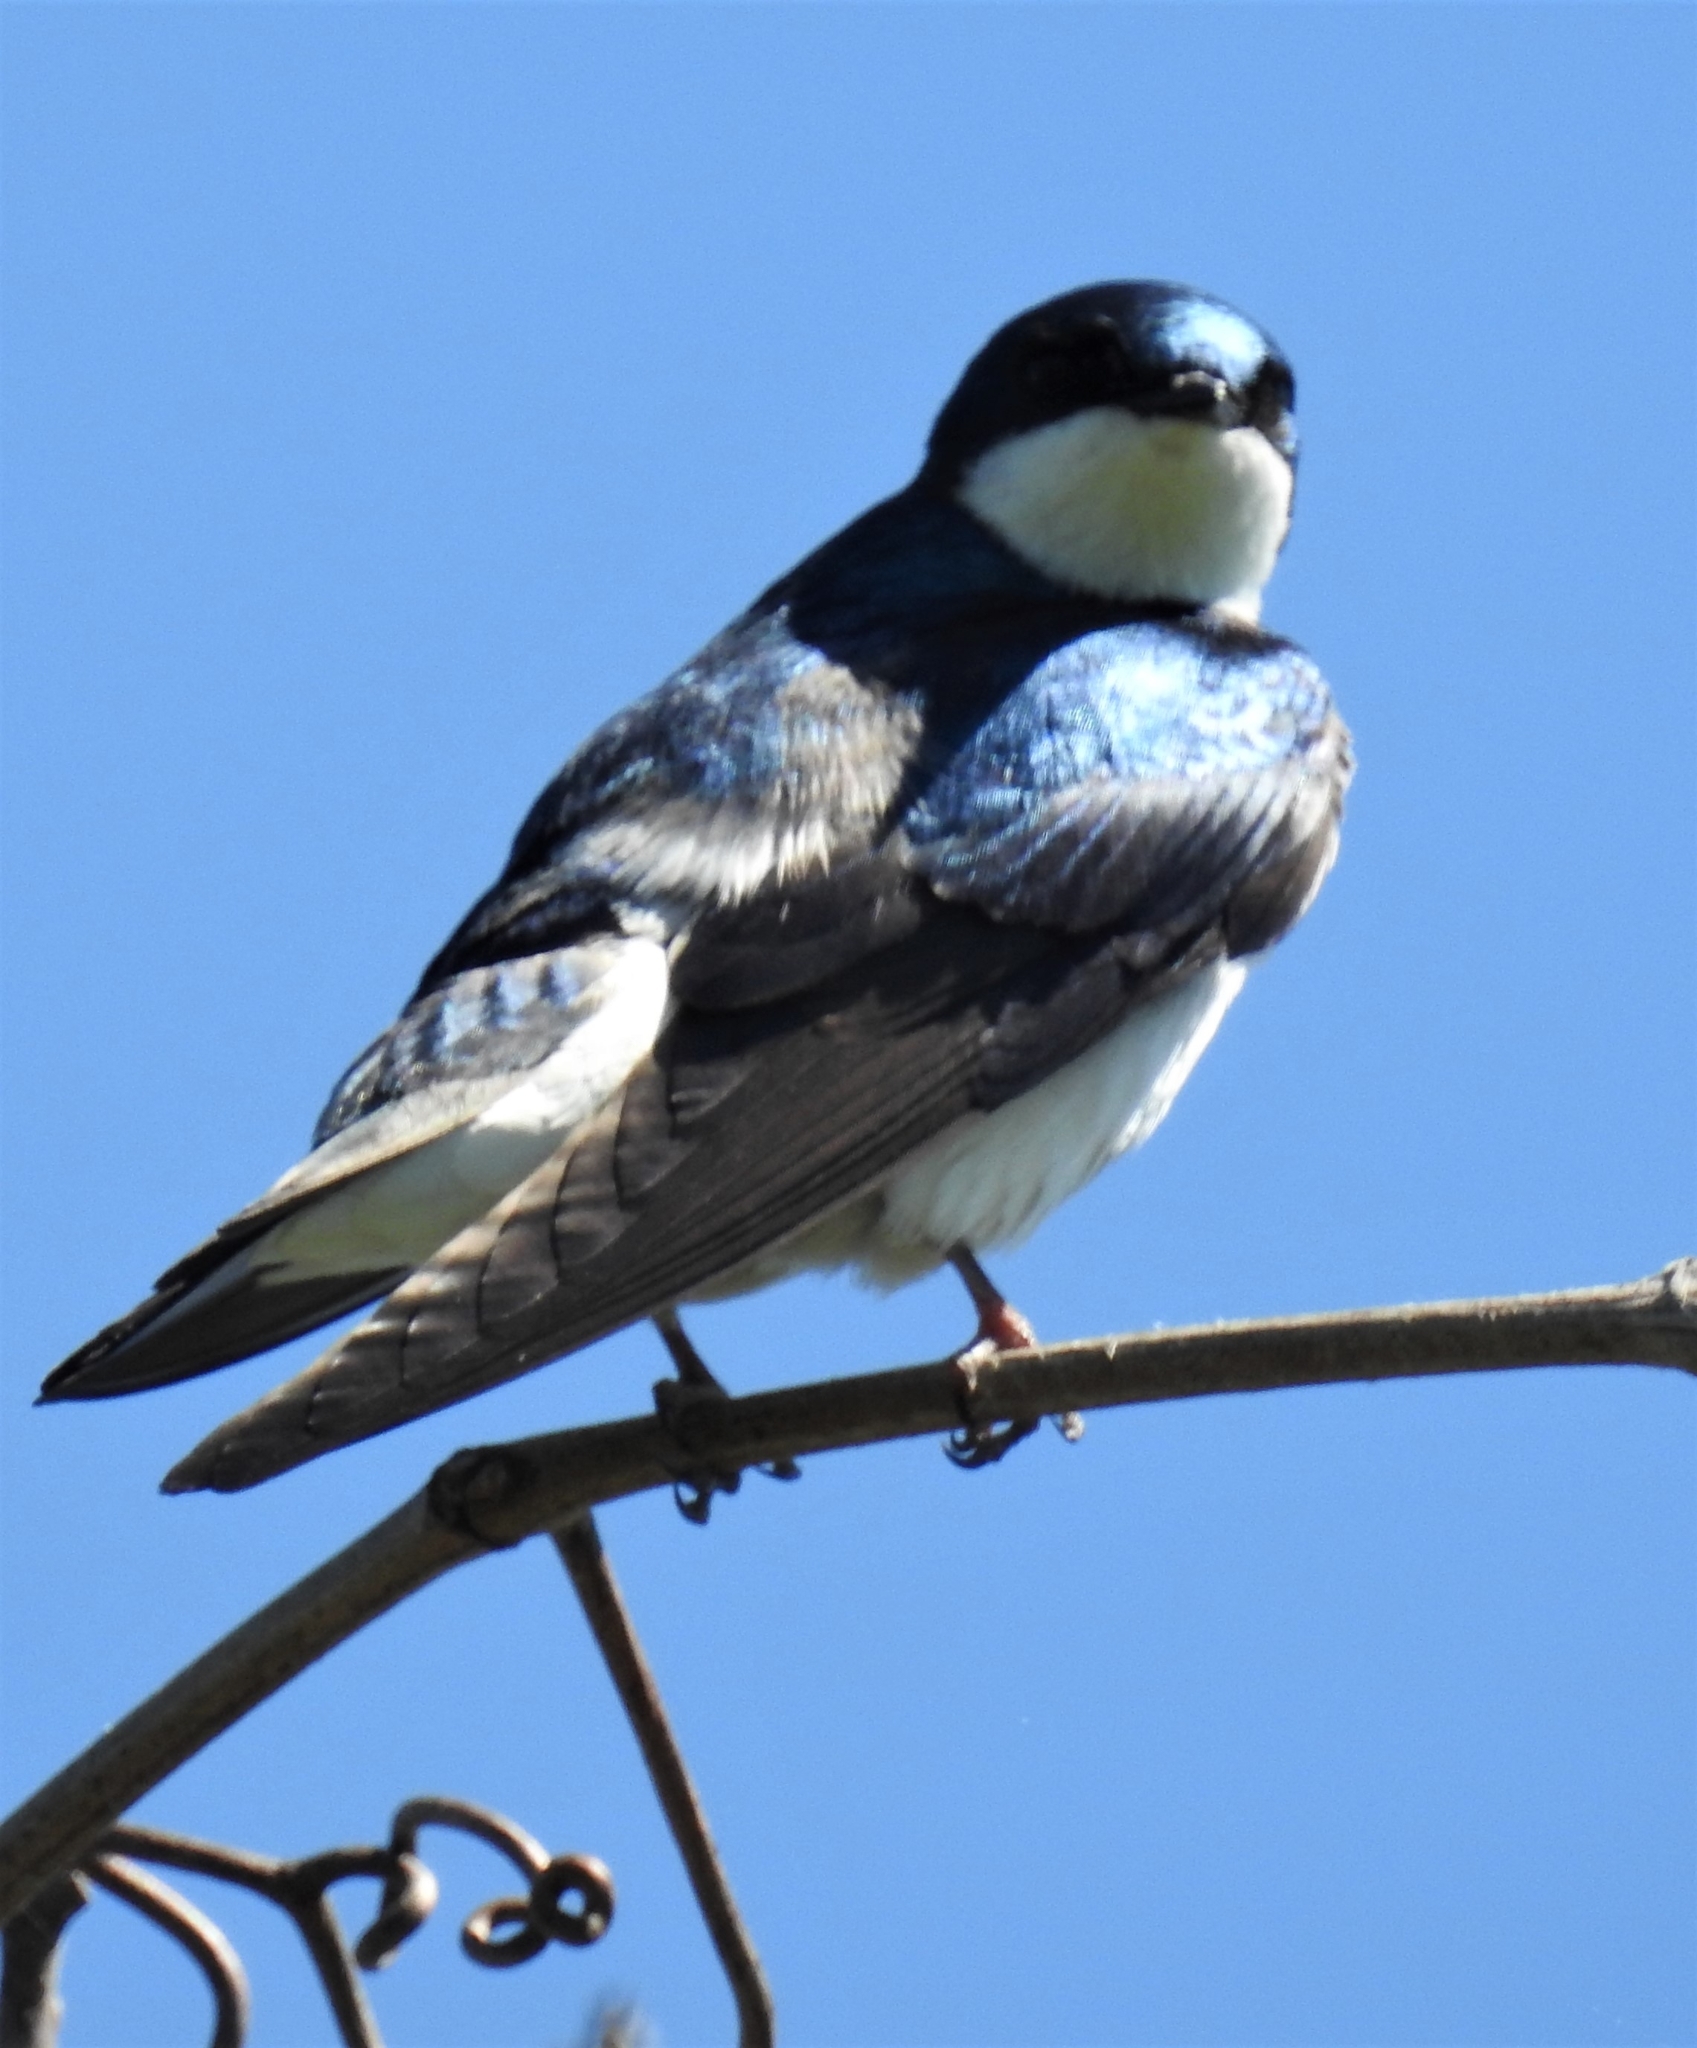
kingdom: Animalia
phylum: Chordata
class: Aves
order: Passeriformes
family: Hirundinidae
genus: Tachycineta
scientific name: Tachycineta bicolor
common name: Tree swallow
